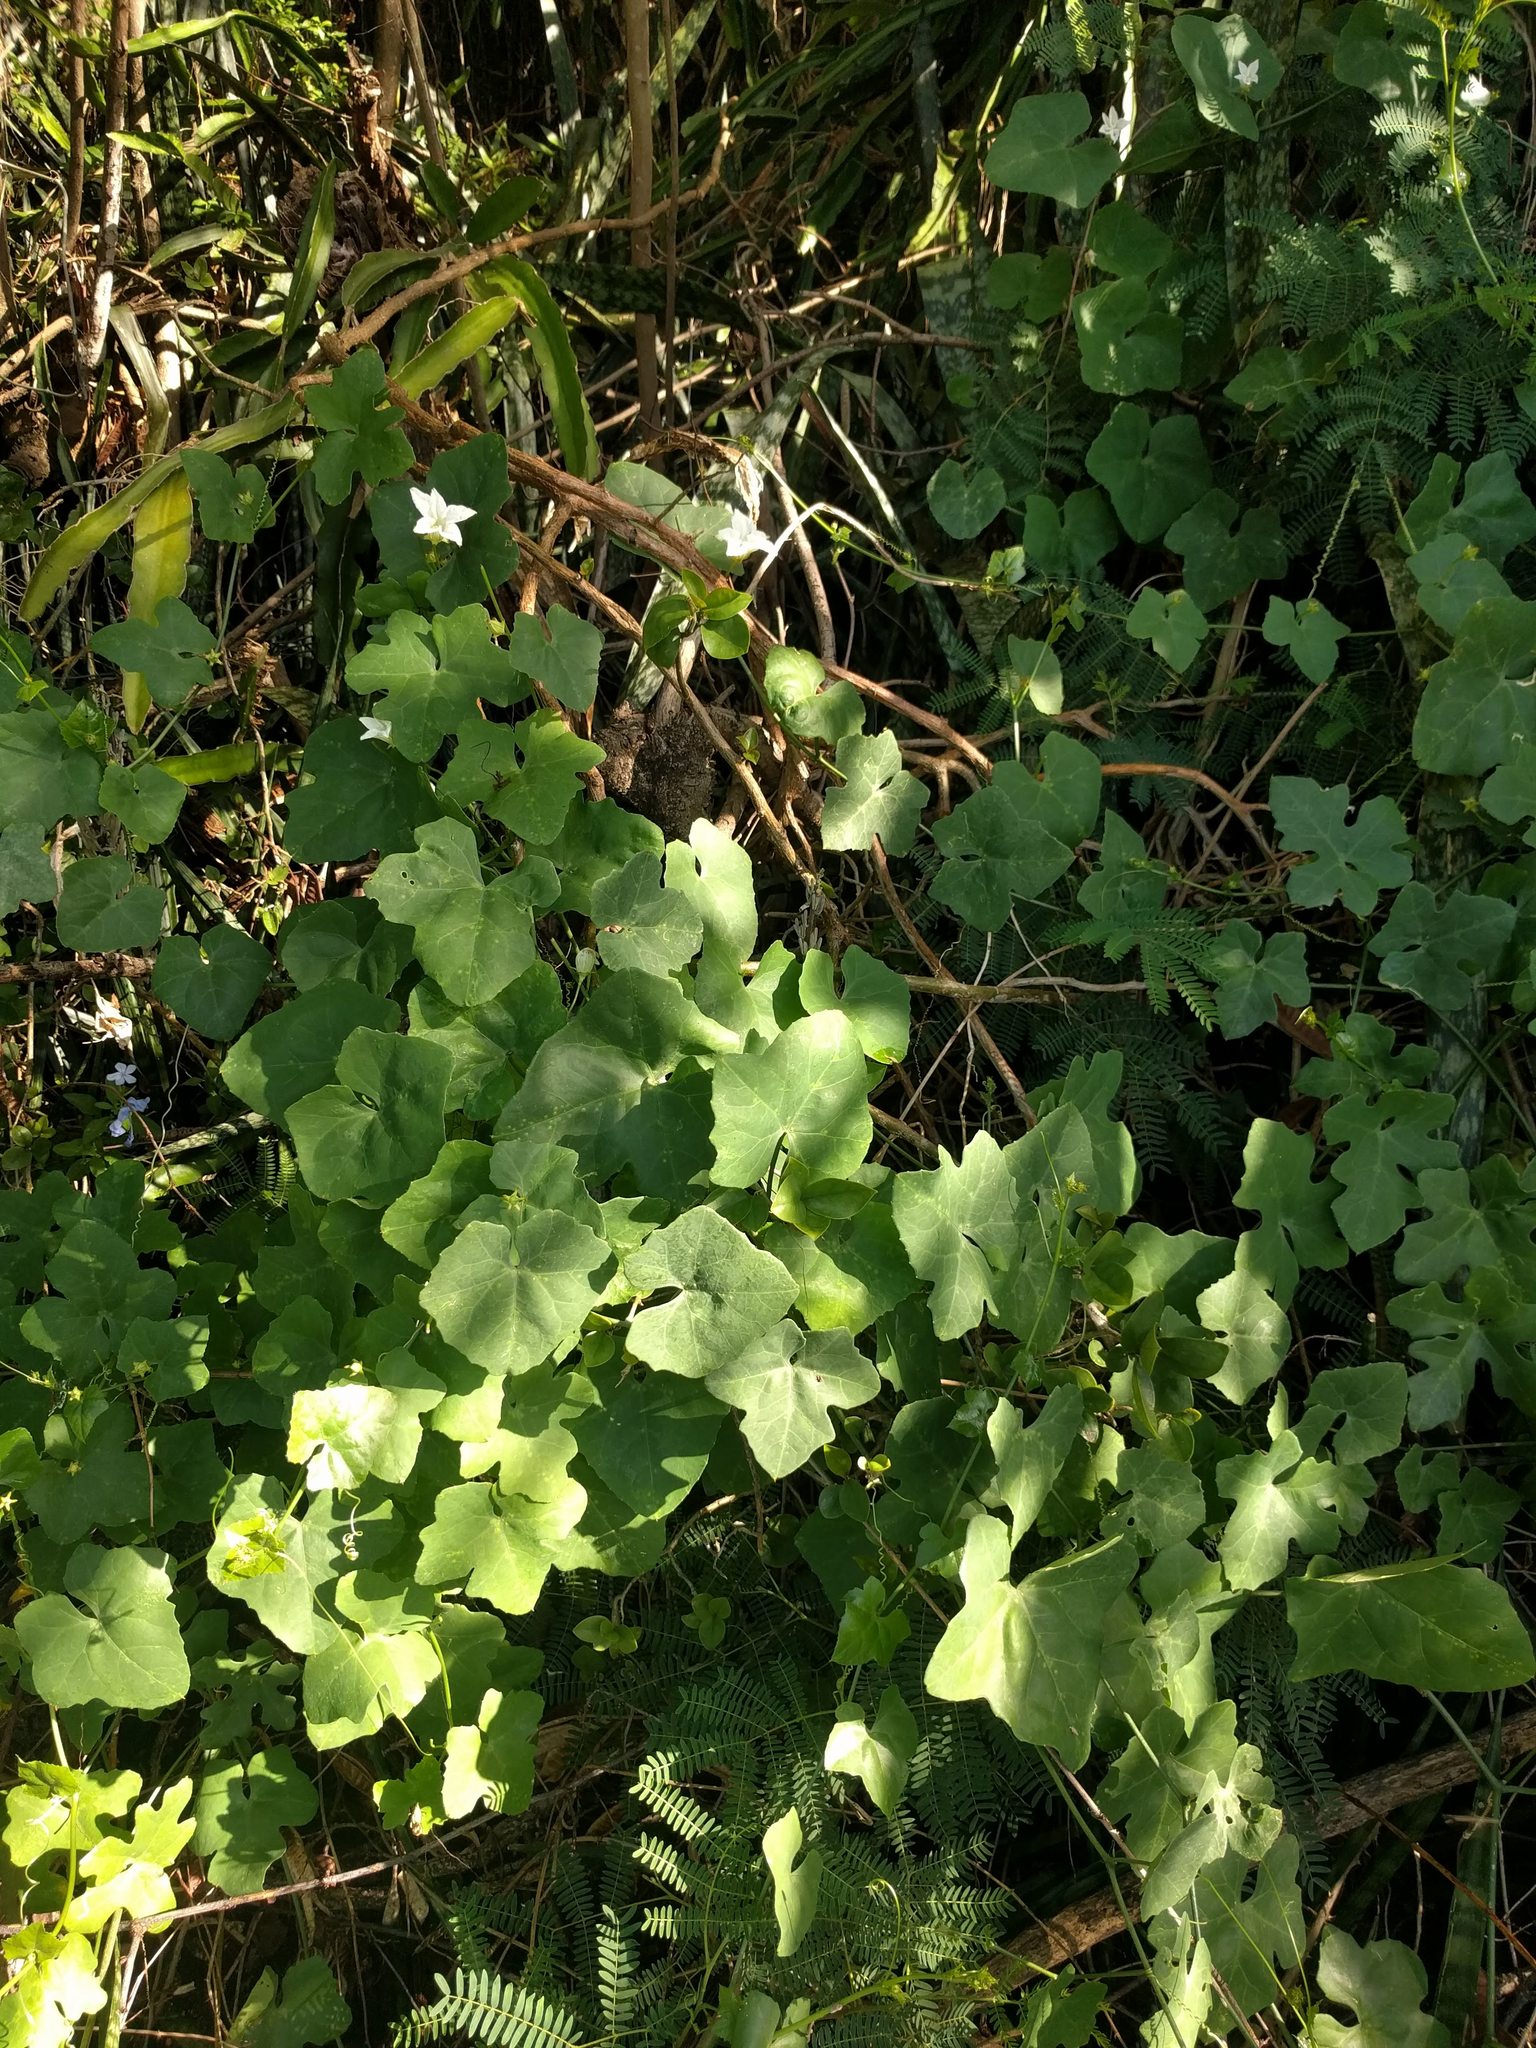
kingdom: Plantae
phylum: Tracheophyta
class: Magnoliopsida
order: Cucurbitales
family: Cucurbitaceae
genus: Coccinia
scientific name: Coccinia grandis
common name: Ivy gourd
